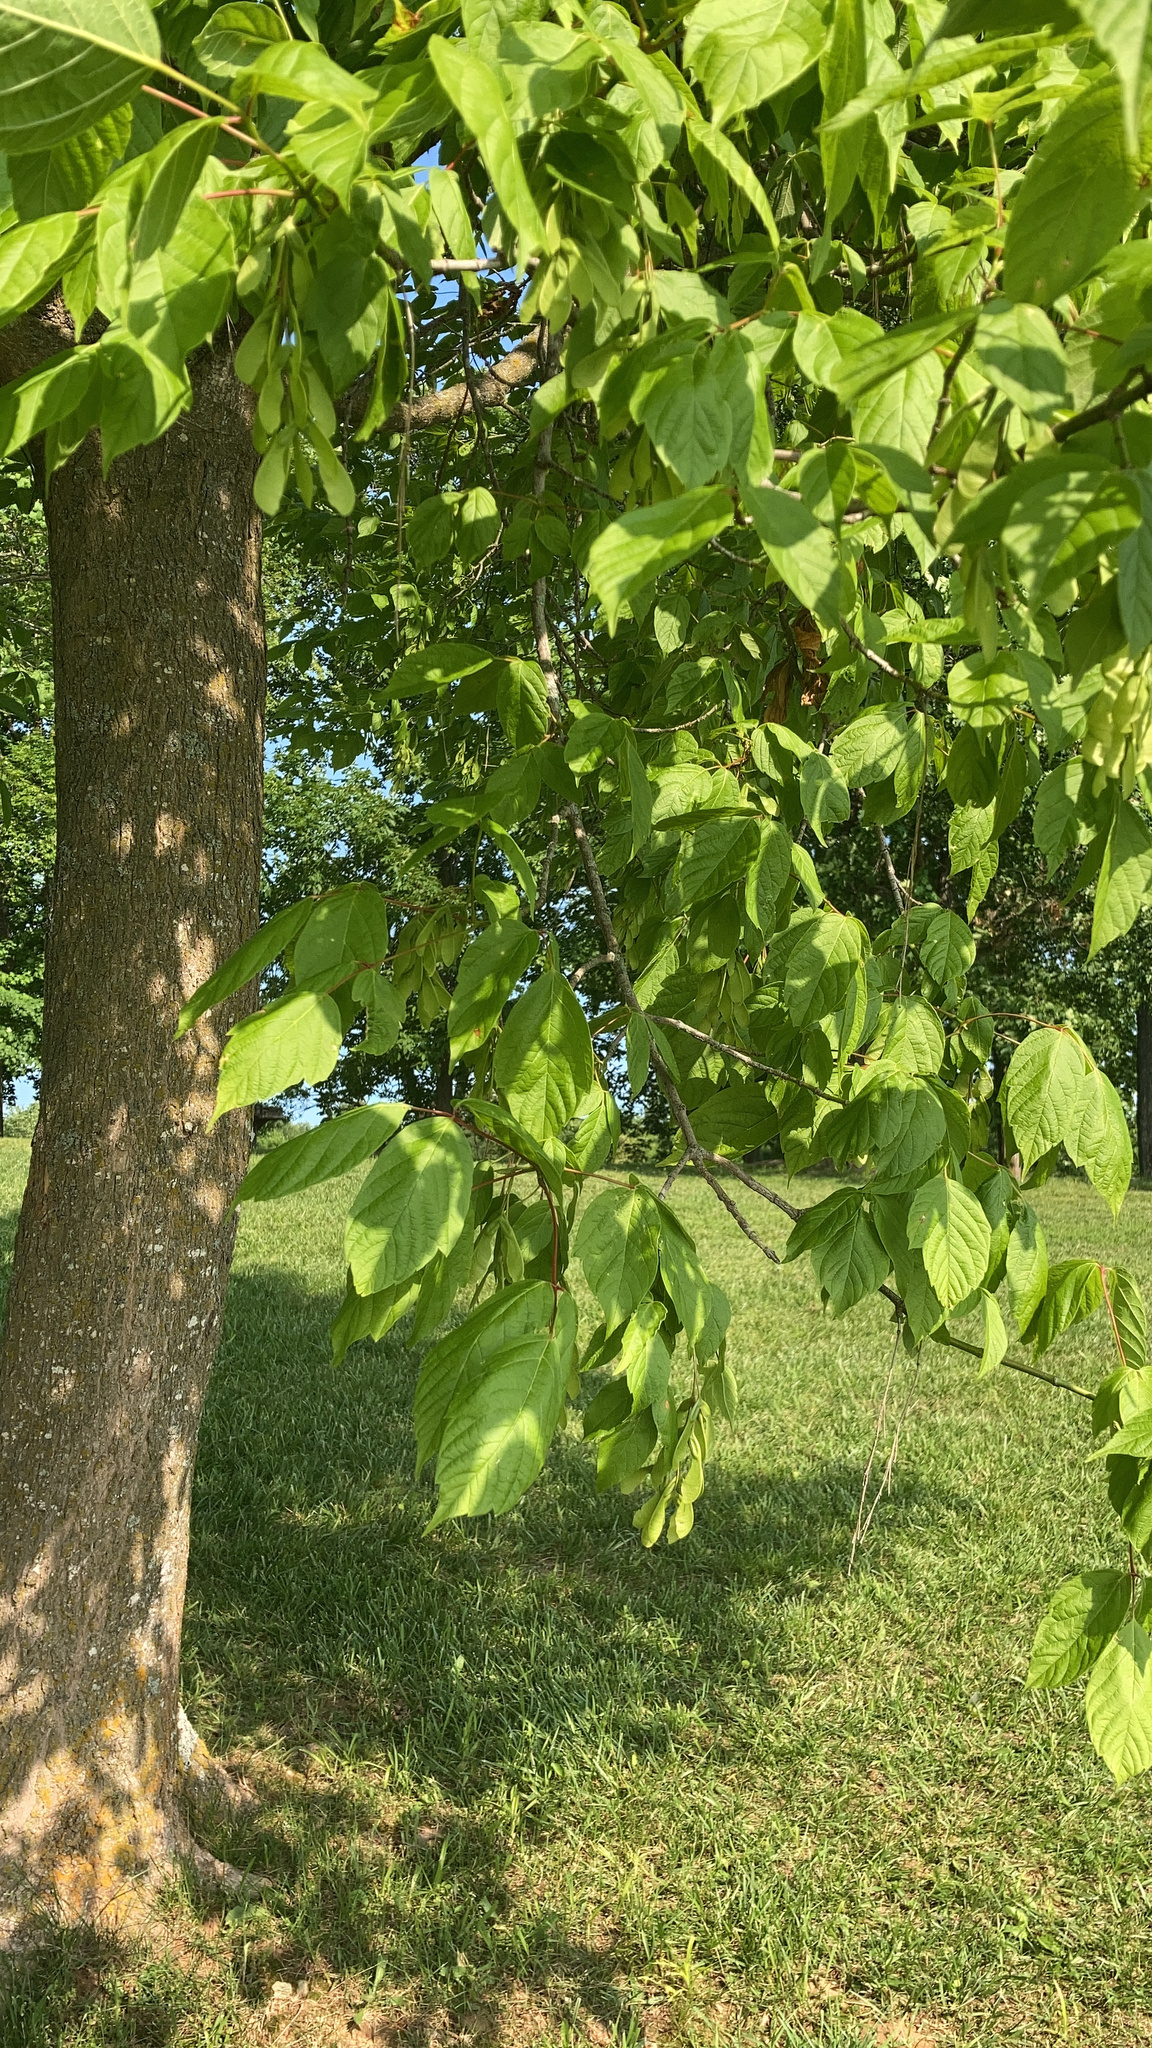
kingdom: Plantae
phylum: Tracheophyta
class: Magnoliopsida
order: Sapindales
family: Sapindaceae
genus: Acer
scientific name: Acer negundo
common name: Ashleaf maple
